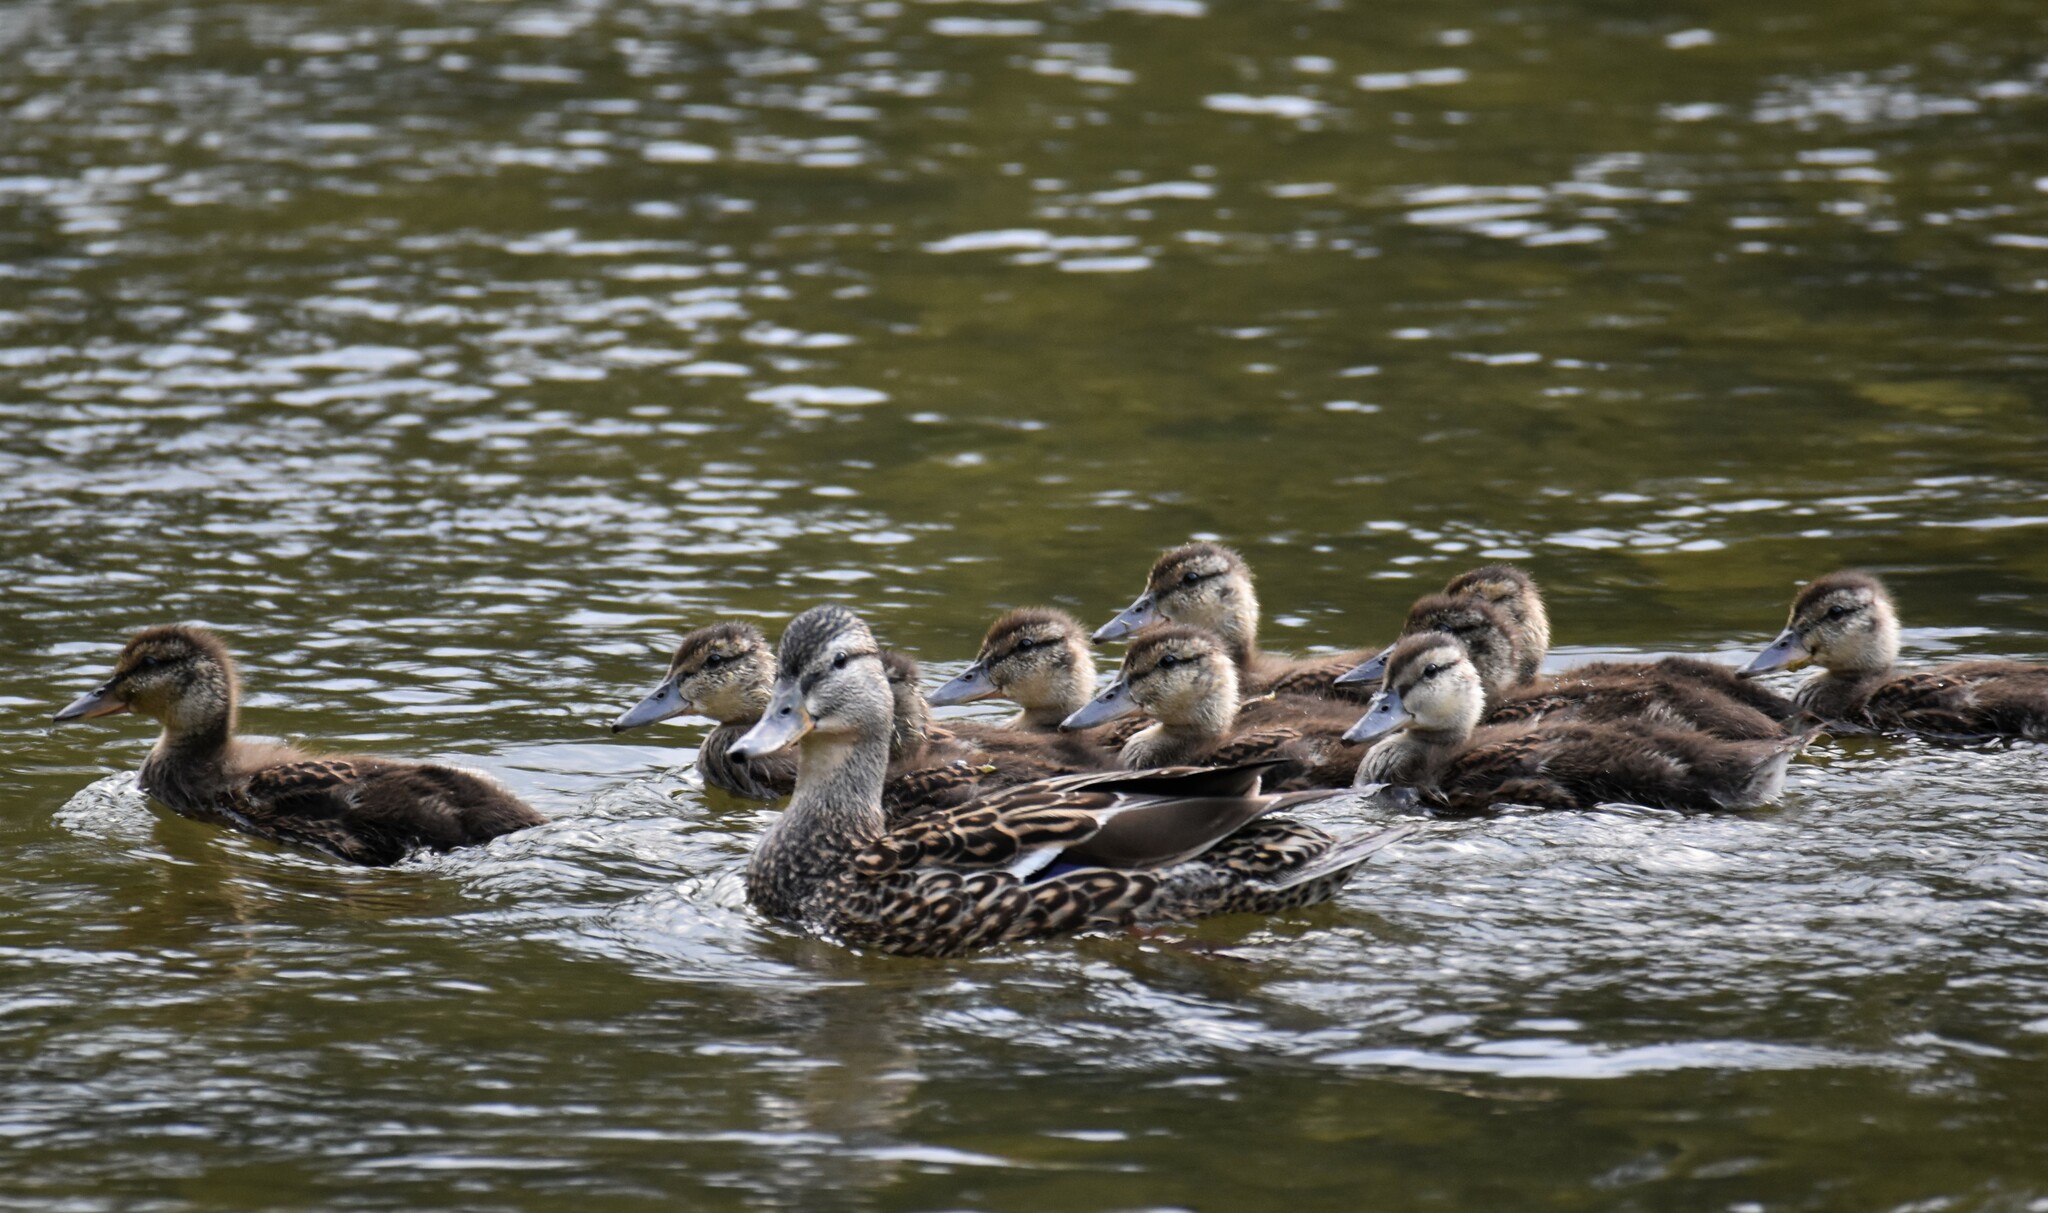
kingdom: Animalia
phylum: Chordata
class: Aves
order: Anseriformes
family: Anatidae
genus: Anas
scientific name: Anas platyrhynchos
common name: Mallard
